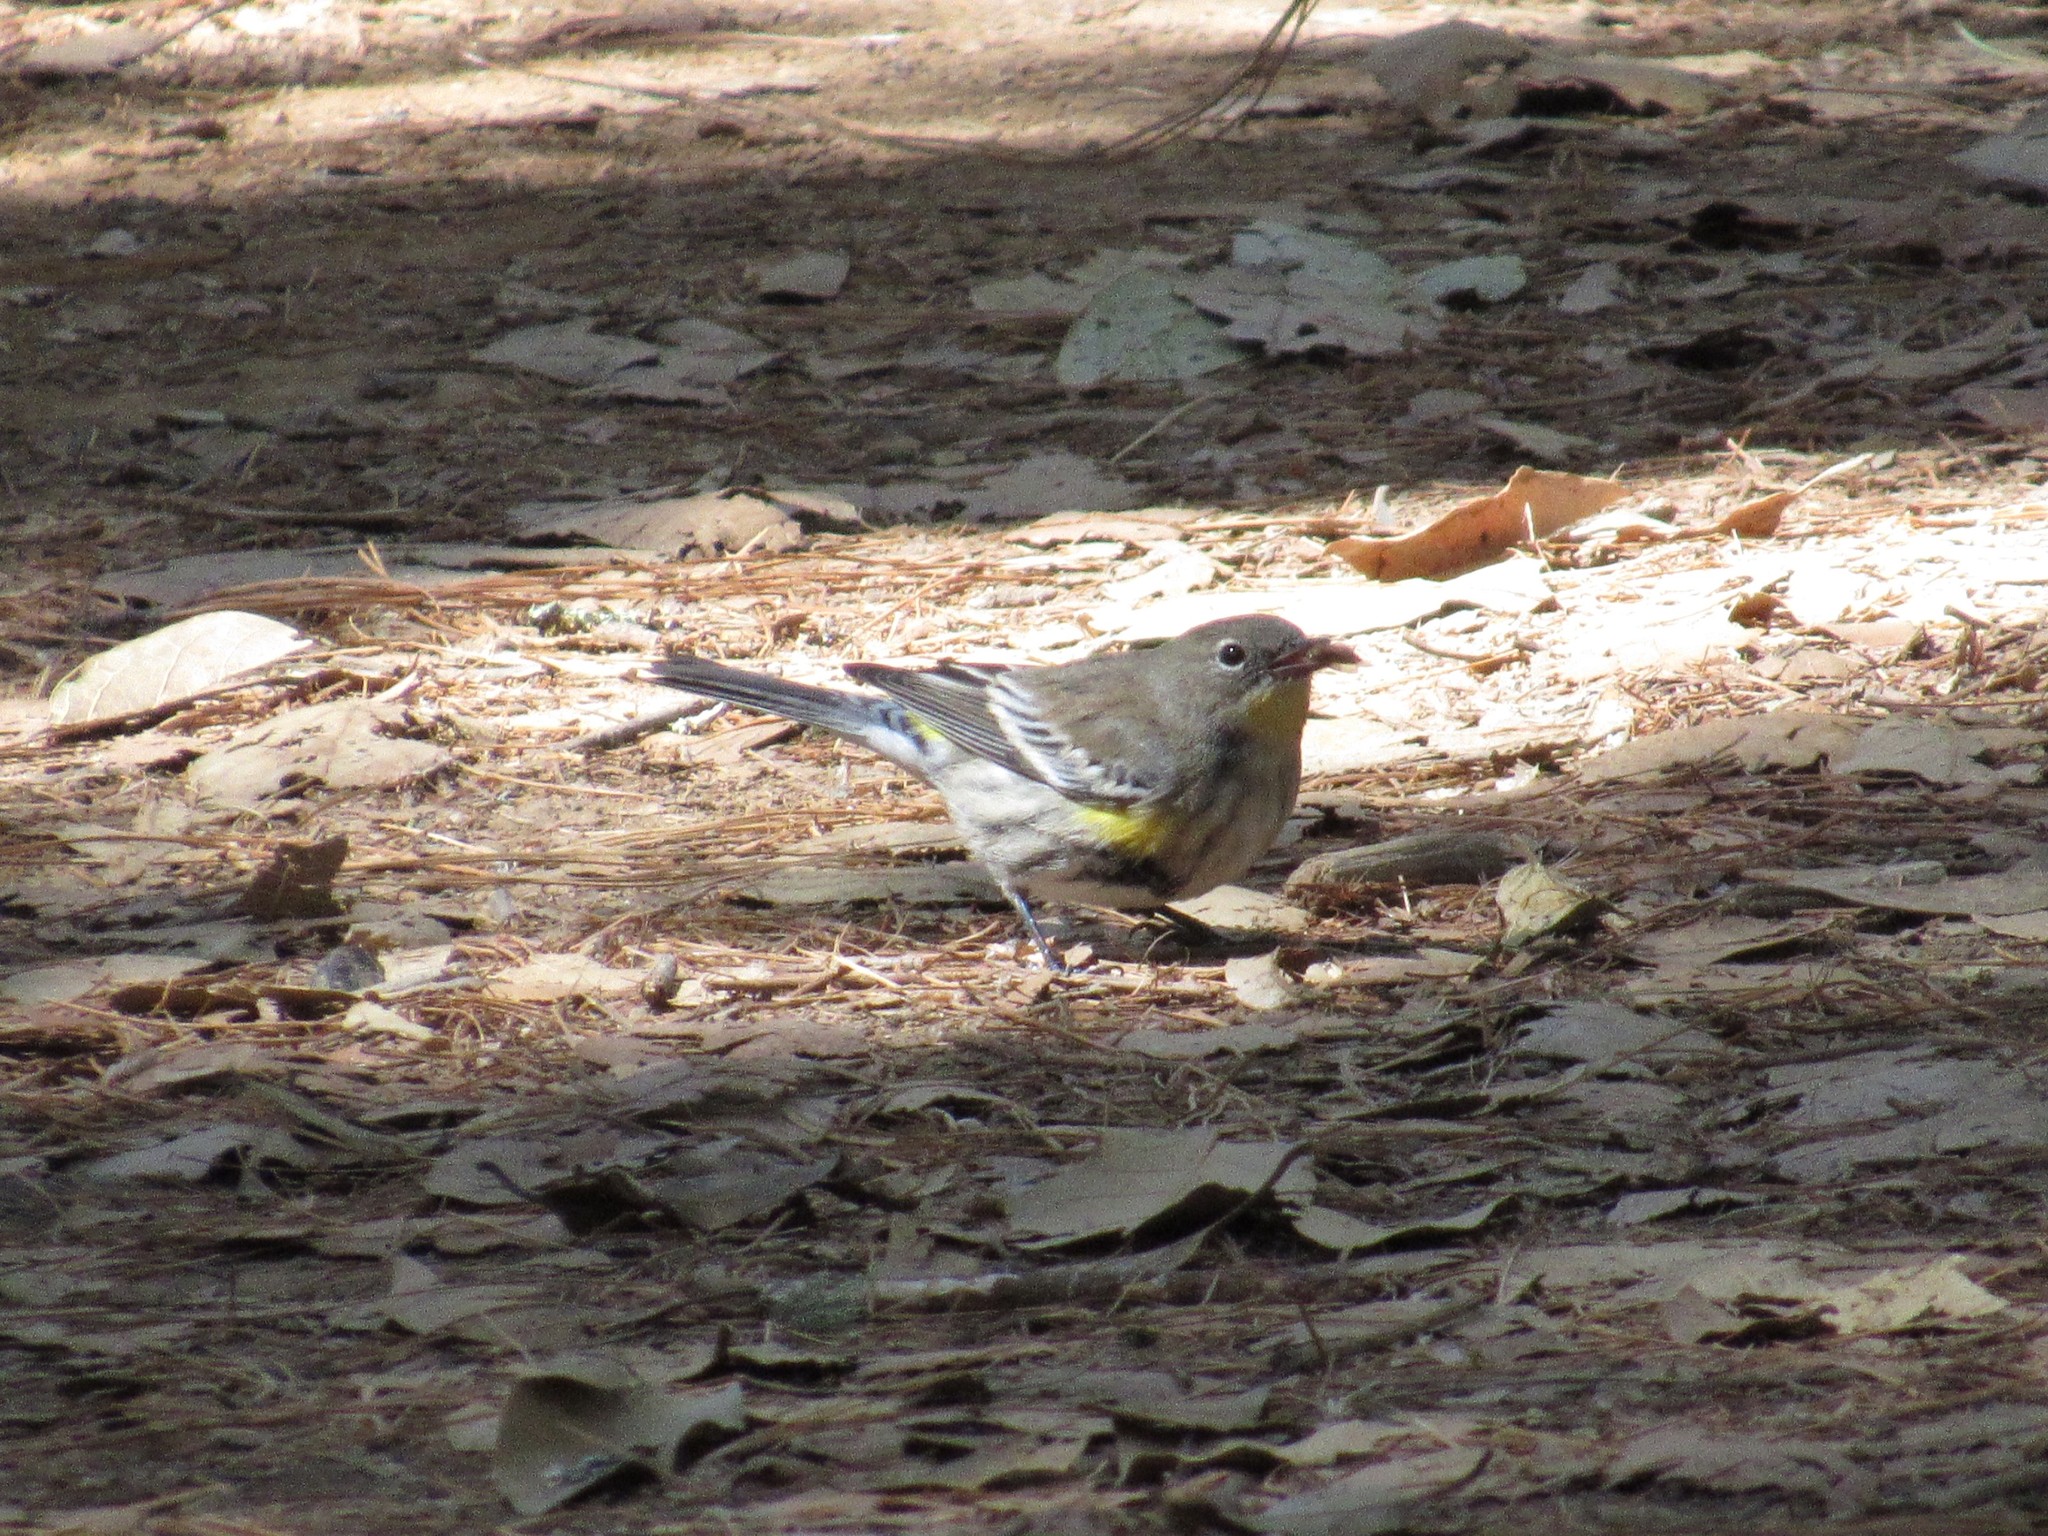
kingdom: Animalia
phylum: Chordata
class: Aves
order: Passeriformes
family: Parulidae
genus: Setophaga
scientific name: Setophaga auduboni
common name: Audubon's warbler
